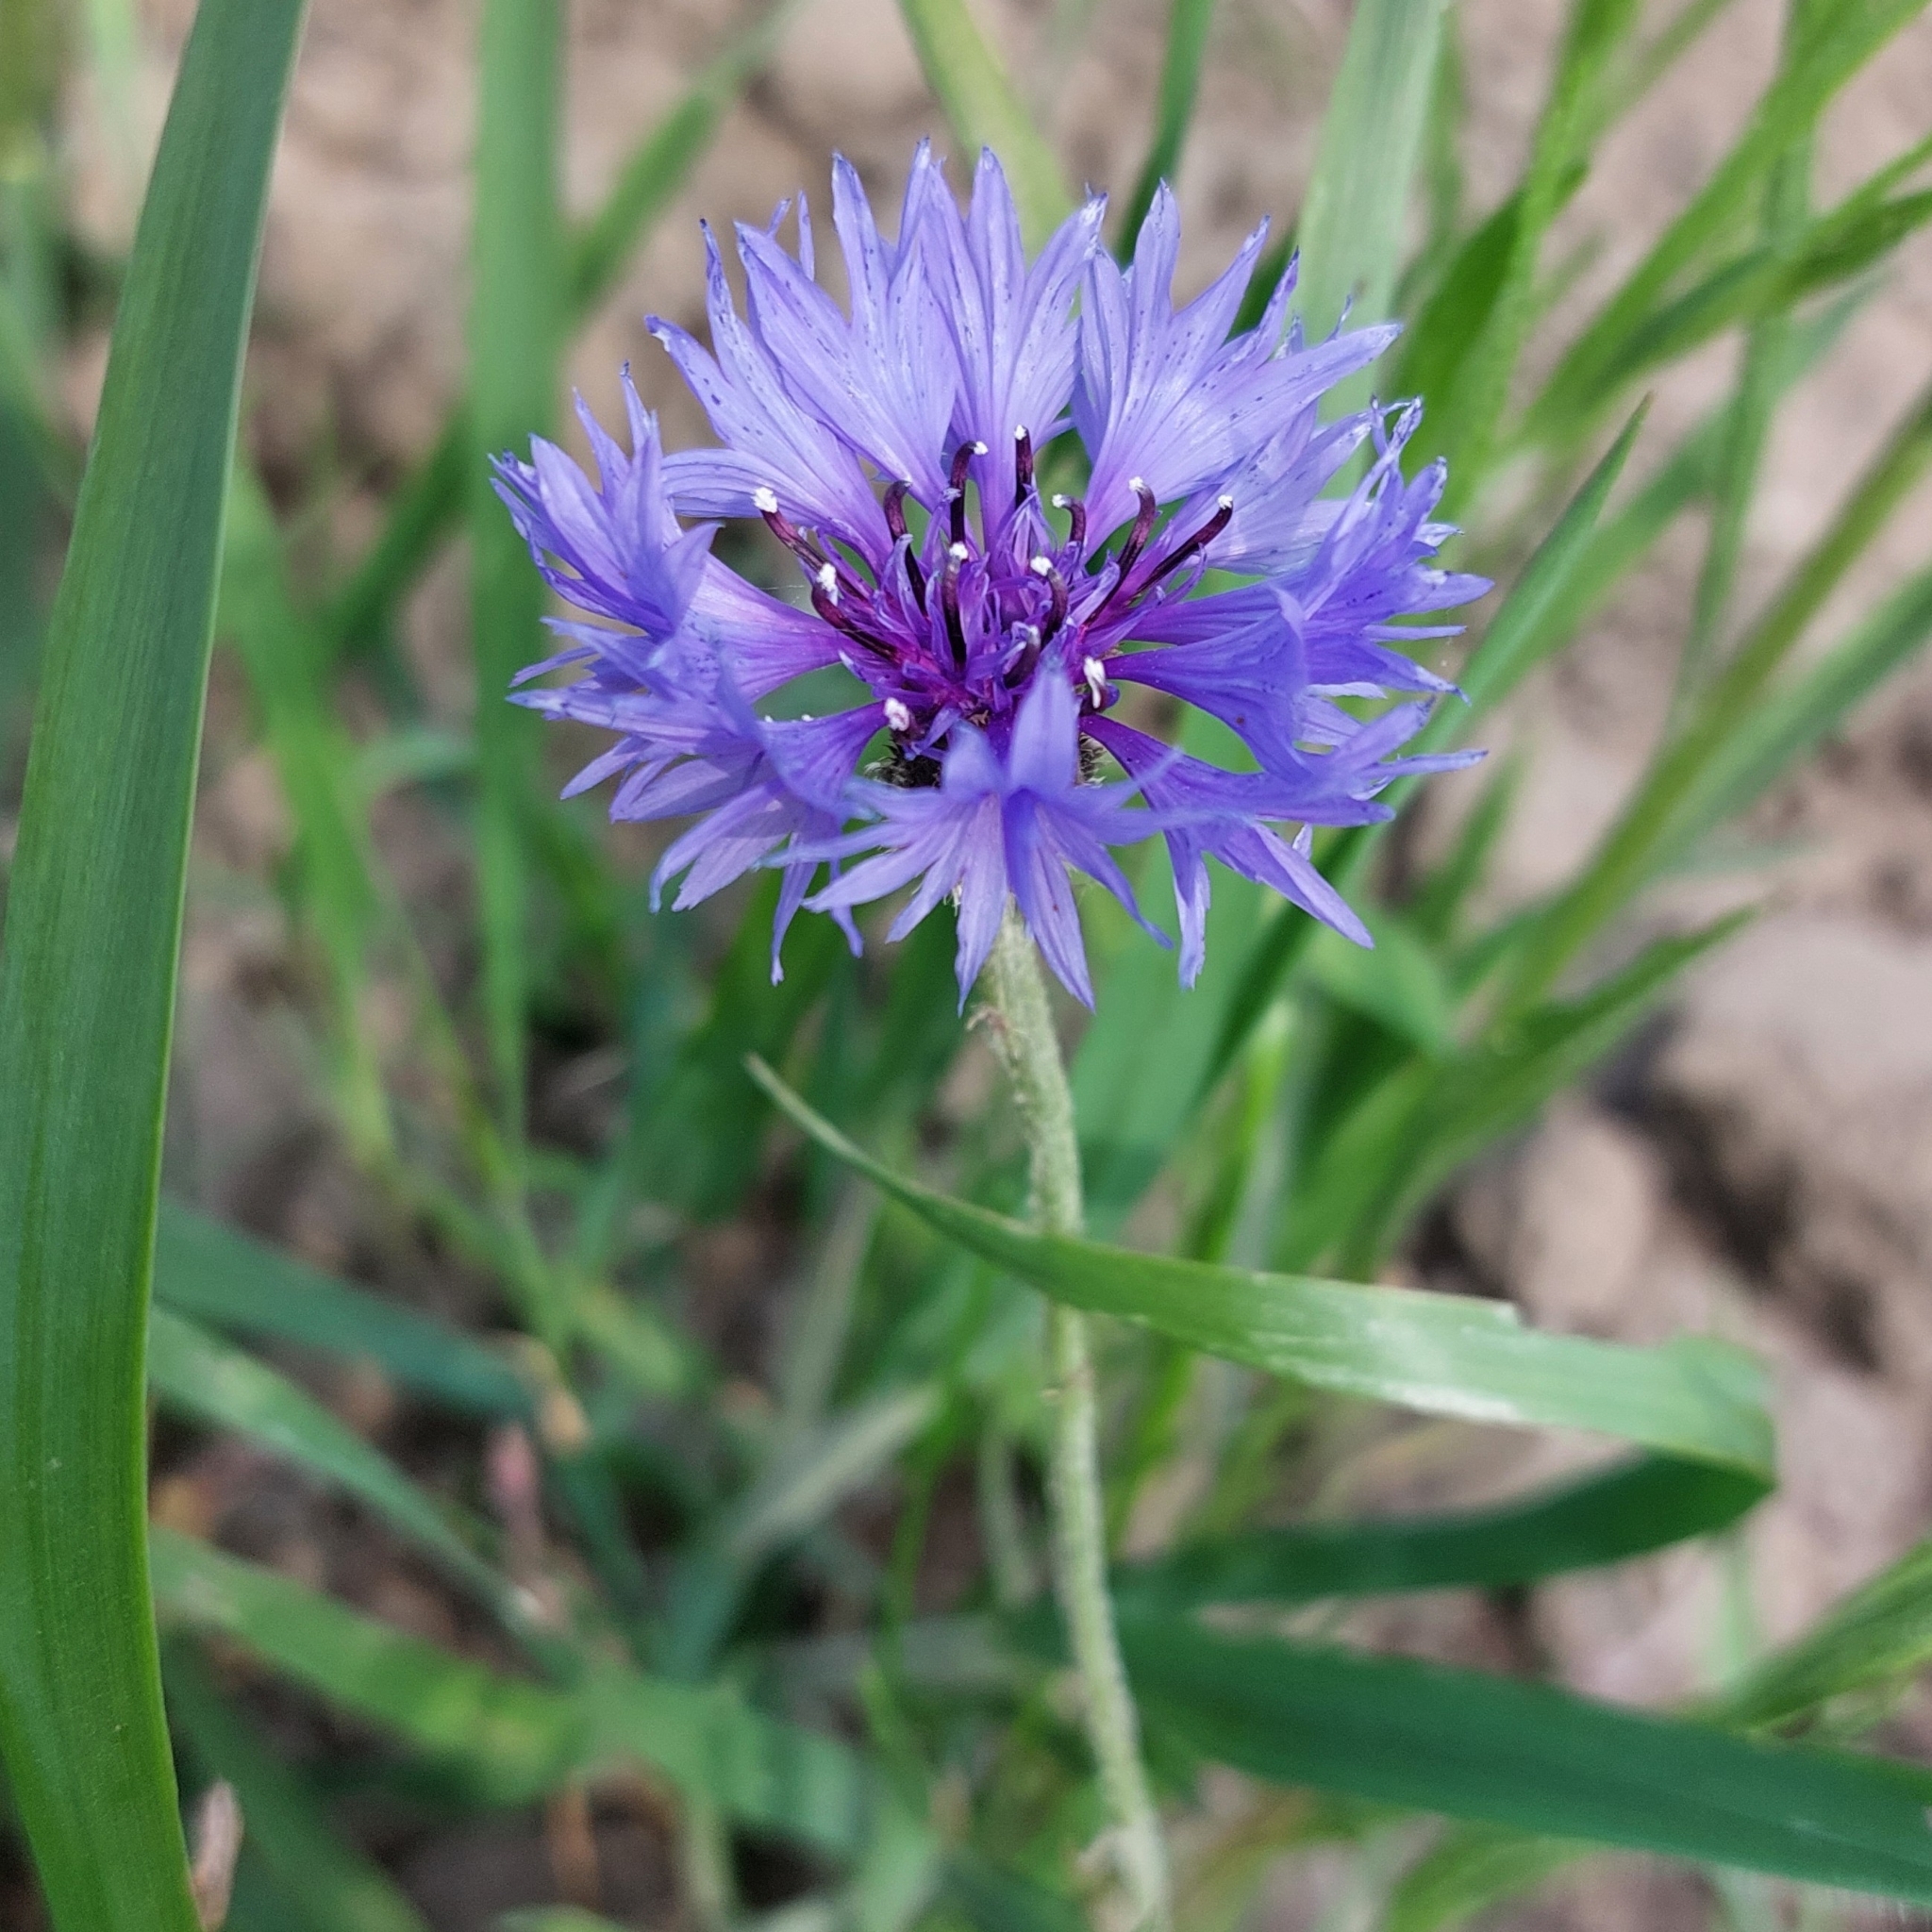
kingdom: Plantae
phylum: Tracheophyta
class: Magnoliopsida
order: Asterales
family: Asteraceae
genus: Centaurea
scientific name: Centaurea cyanus
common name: Cornflower
